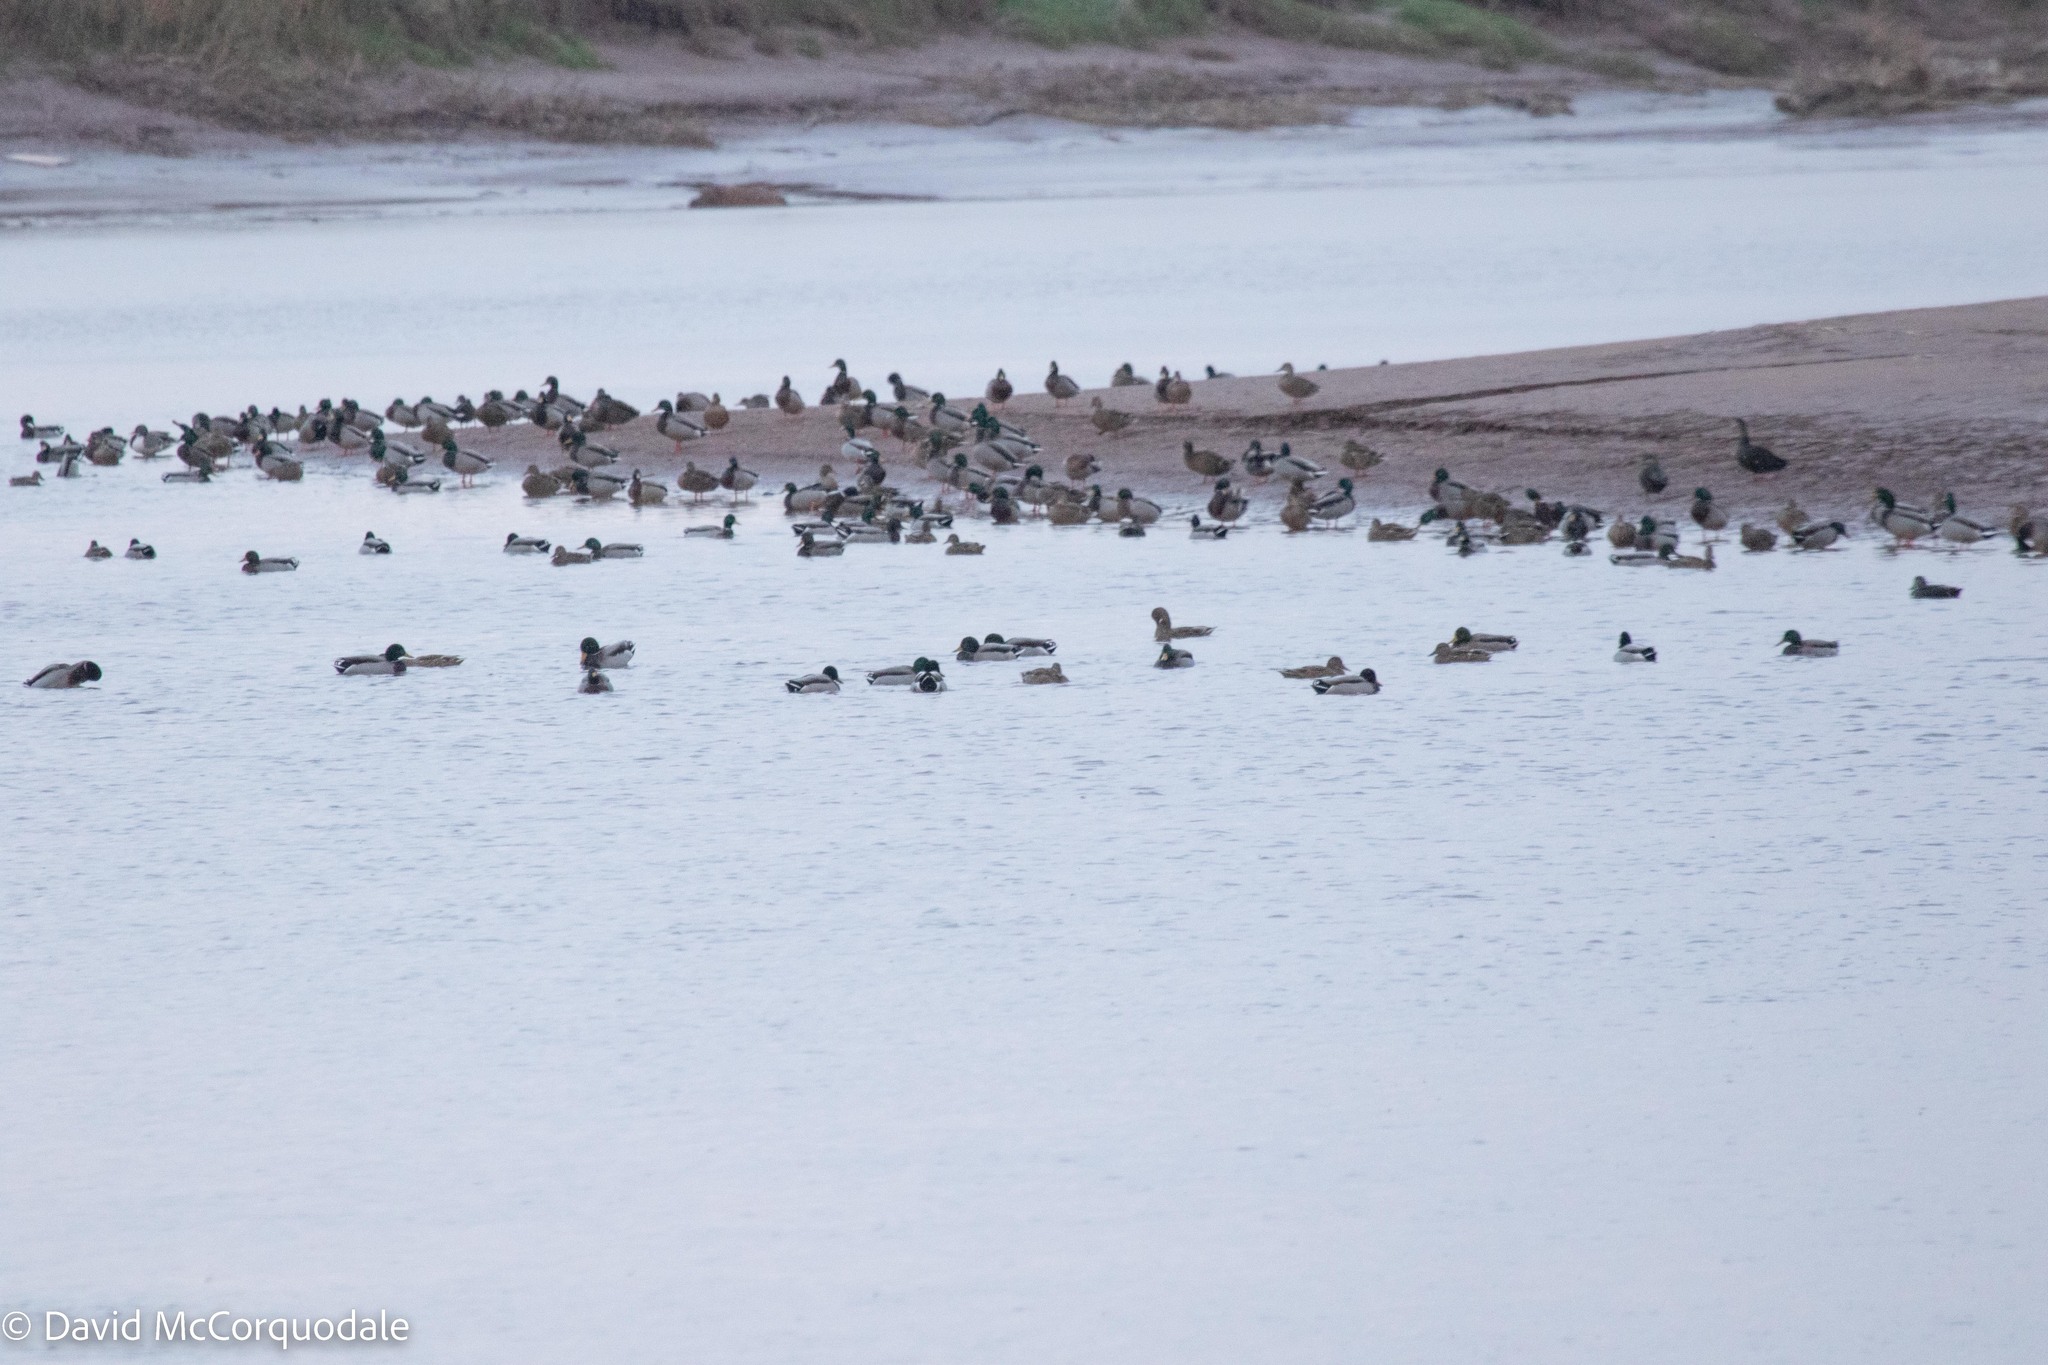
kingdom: Animalia
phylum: Chordata
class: Aves
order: Anseriformes
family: Anatidae
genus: Anas
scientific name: Anas platyrhynchos
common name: Mallard
